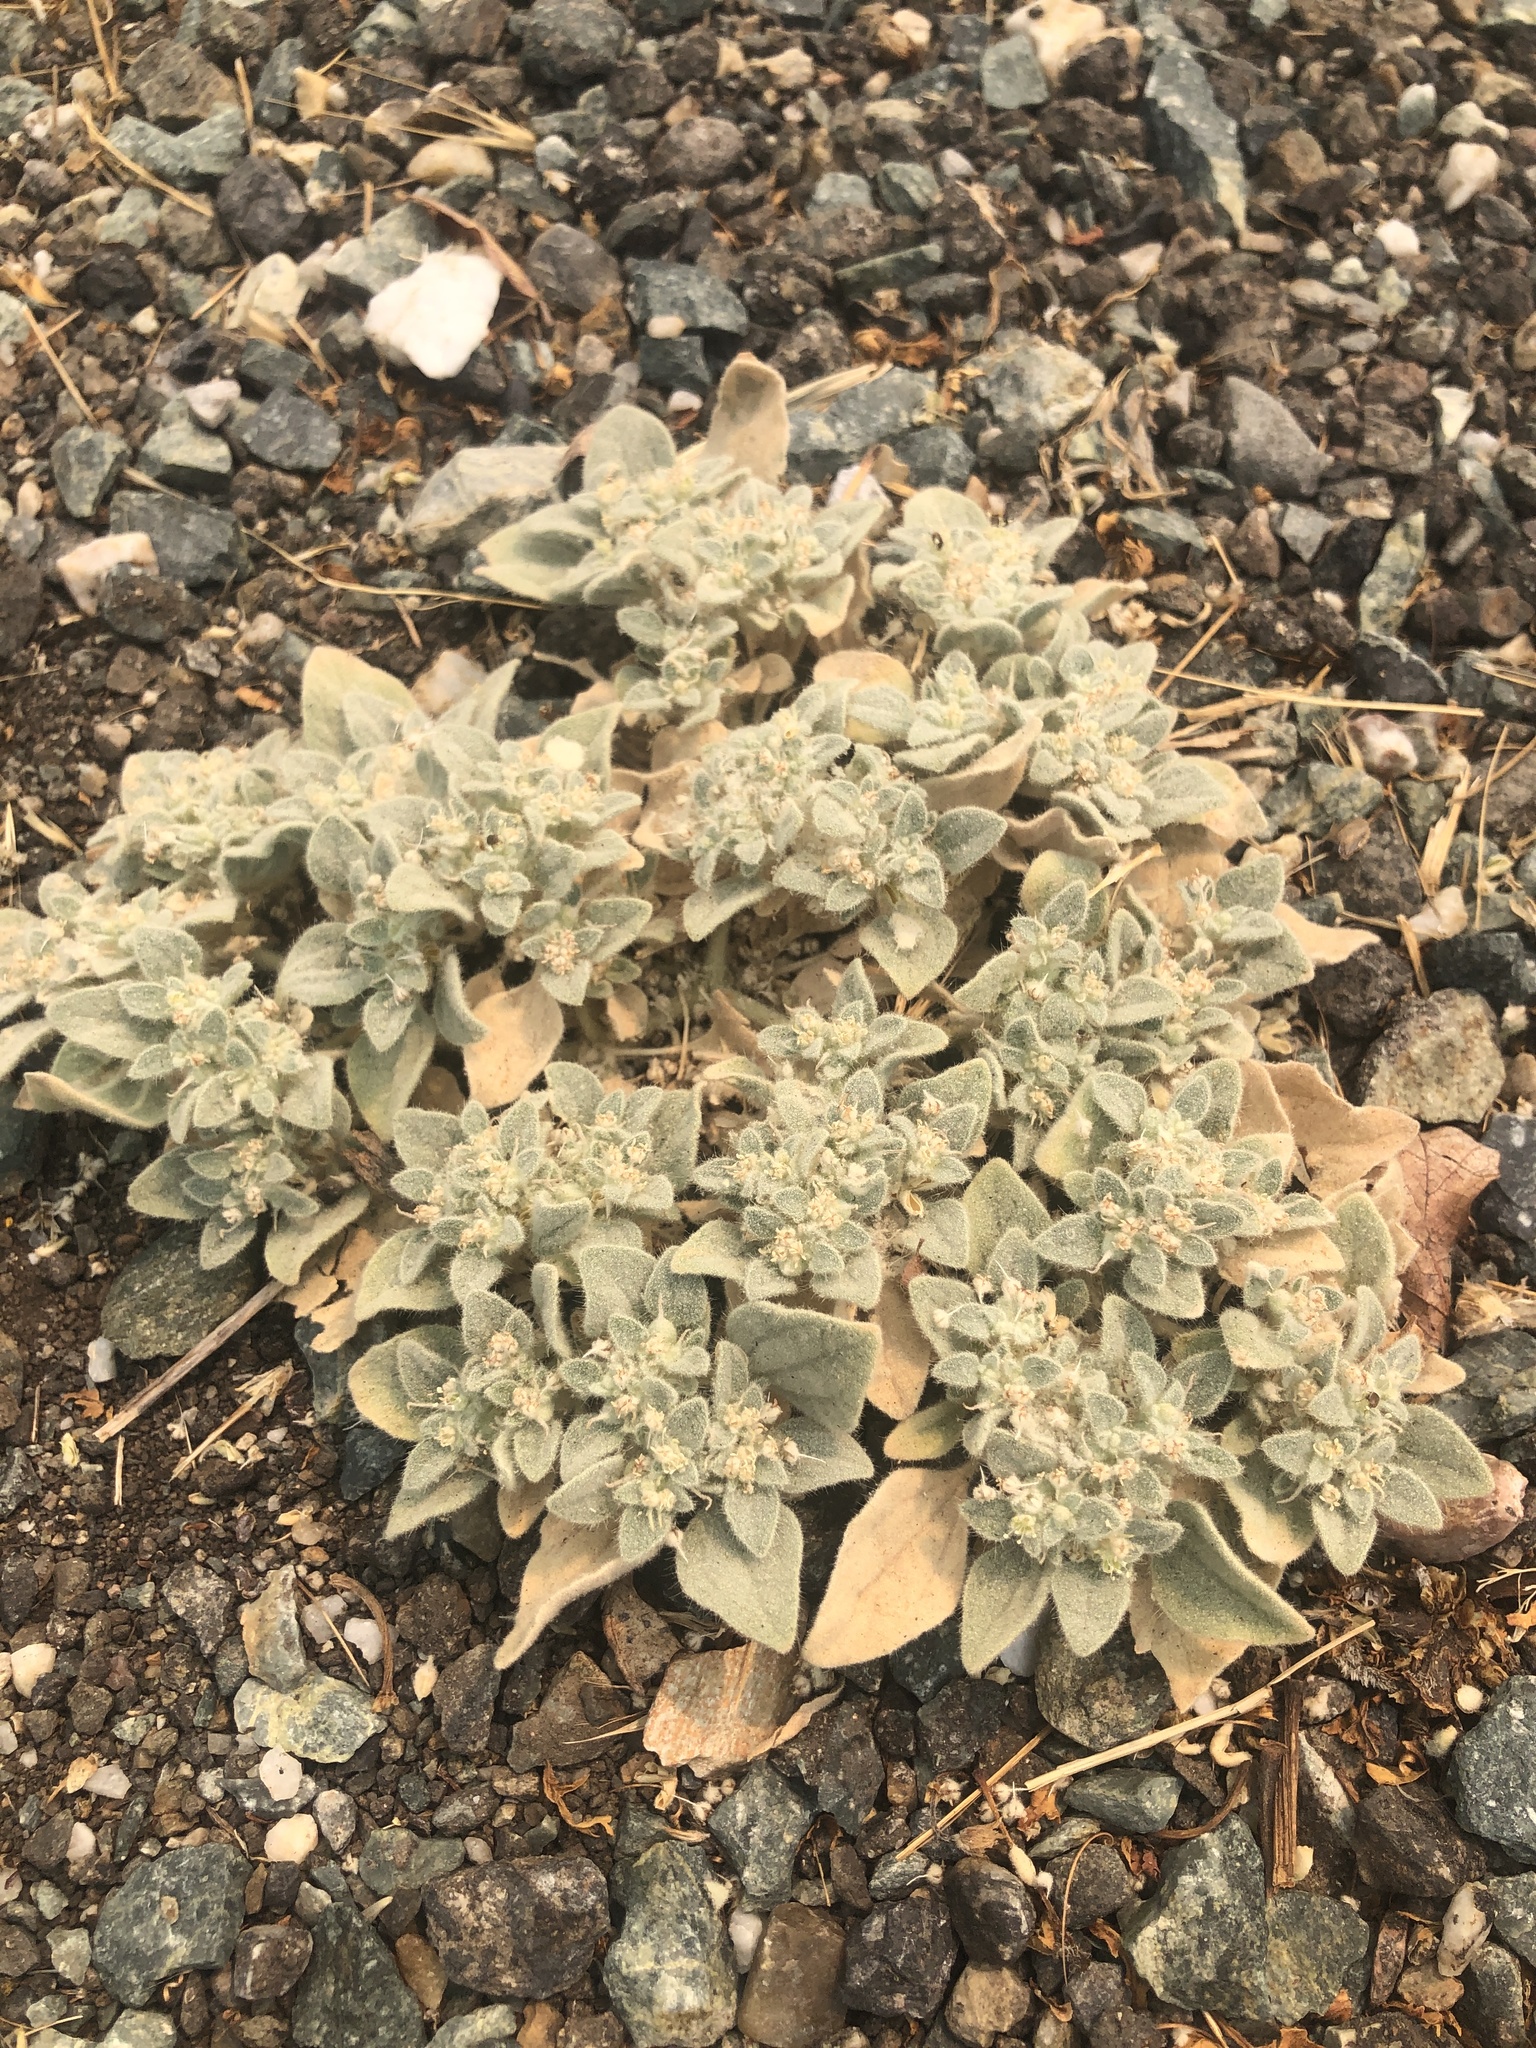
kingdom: Plantae
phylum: Tracheophyta
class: Magnoliopsida
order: Malpighiales
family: Euphorbiaceae
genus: Croton
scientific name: Croton setiger
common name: Dove weed
